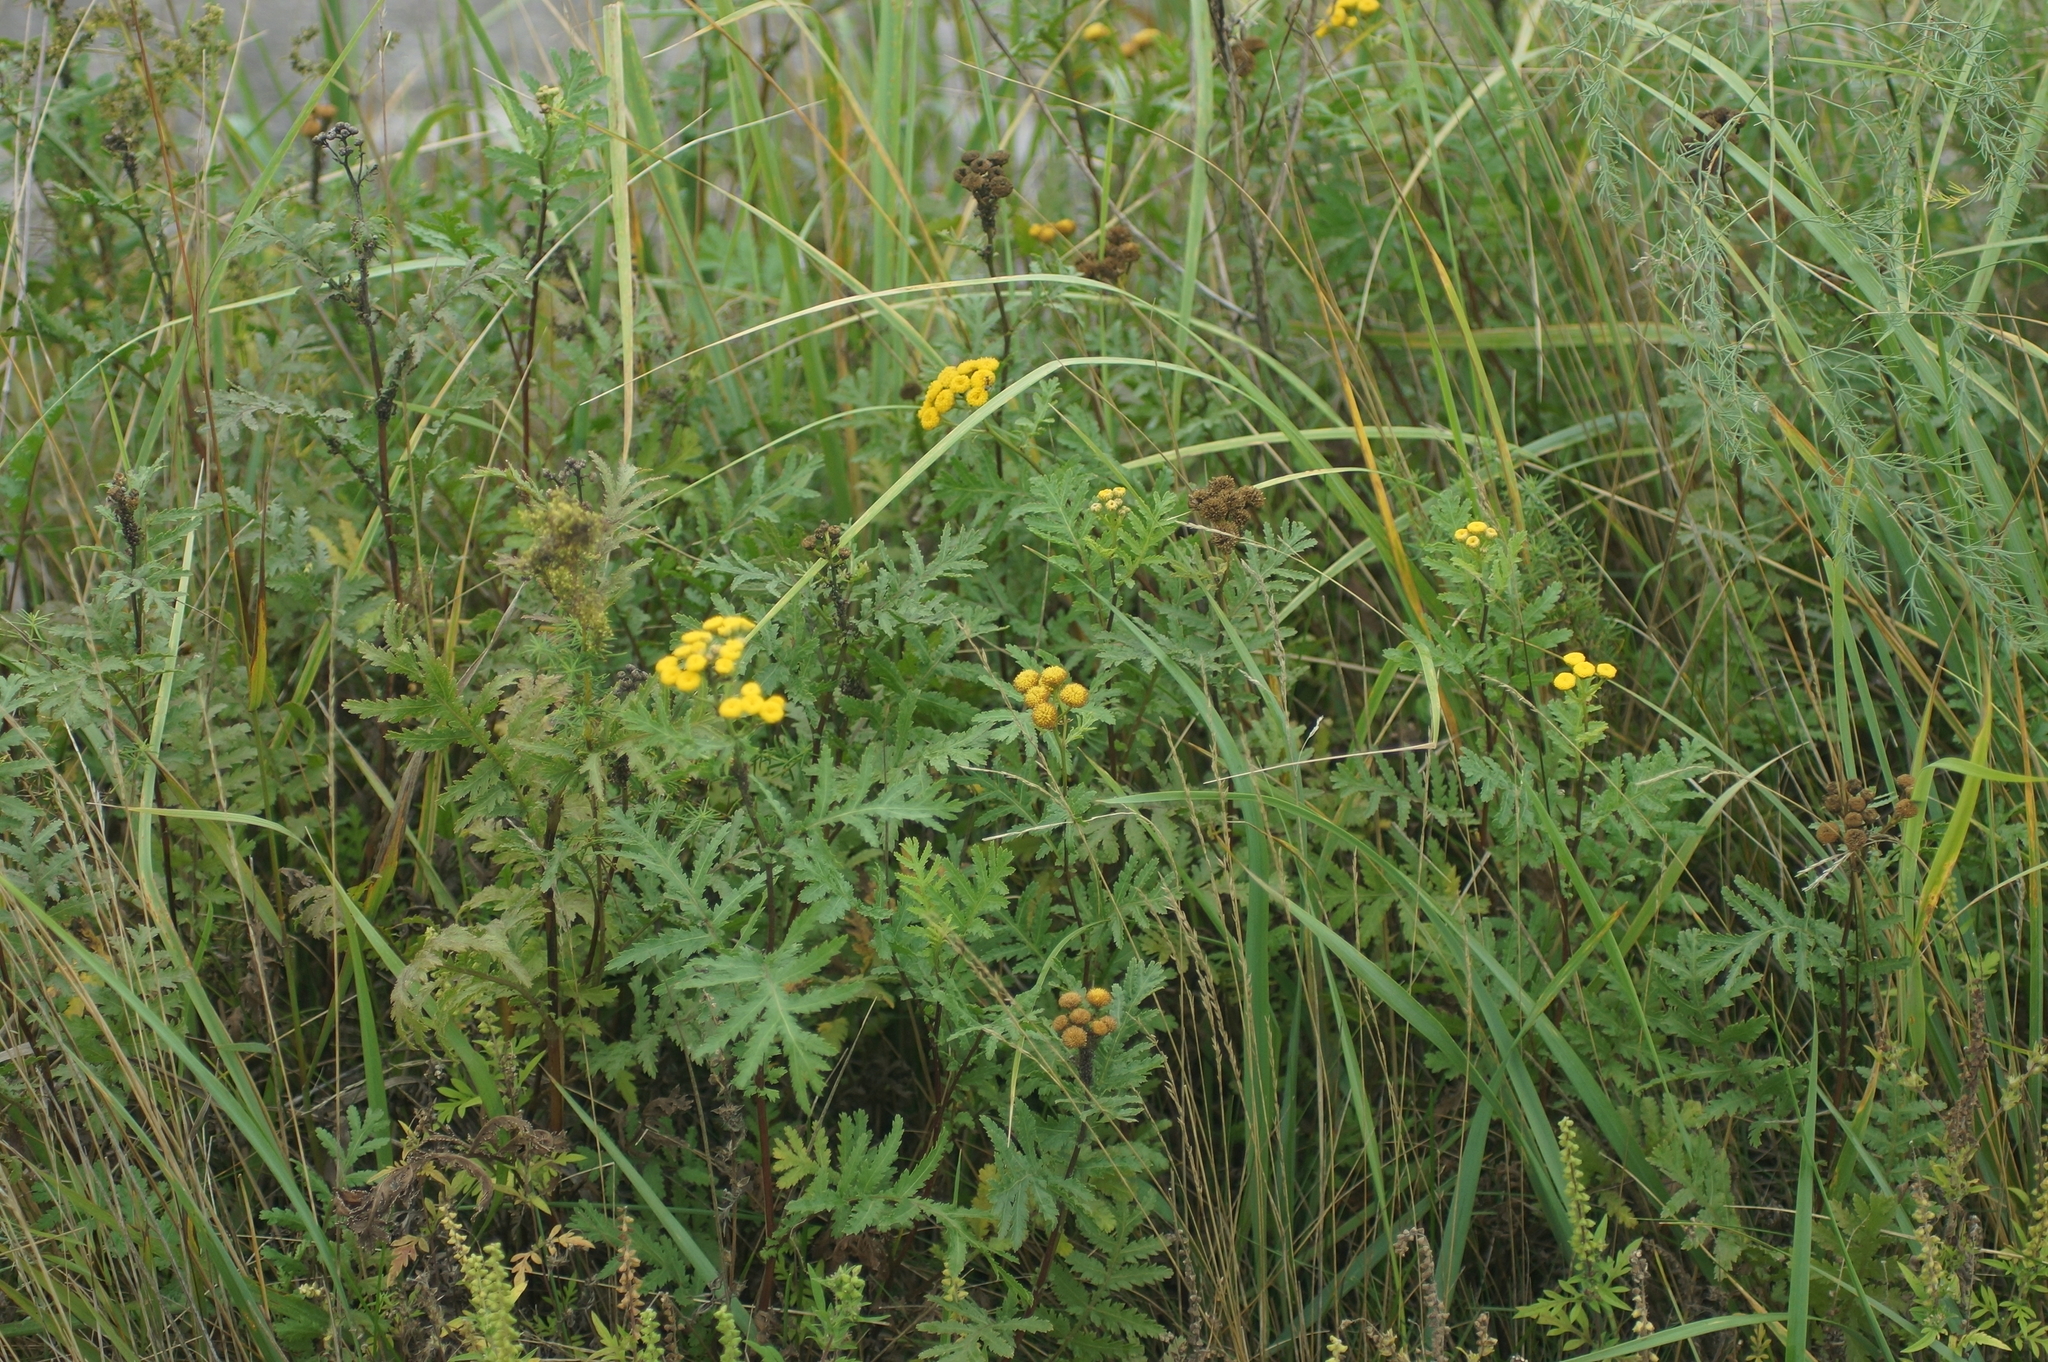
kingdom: Plantae
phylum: Tracheophyta
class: Magnoliopsida
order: Asterales
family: Asteraceae
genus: Tanacetum
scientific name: Tanacetum vulgare
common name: Common tansy
